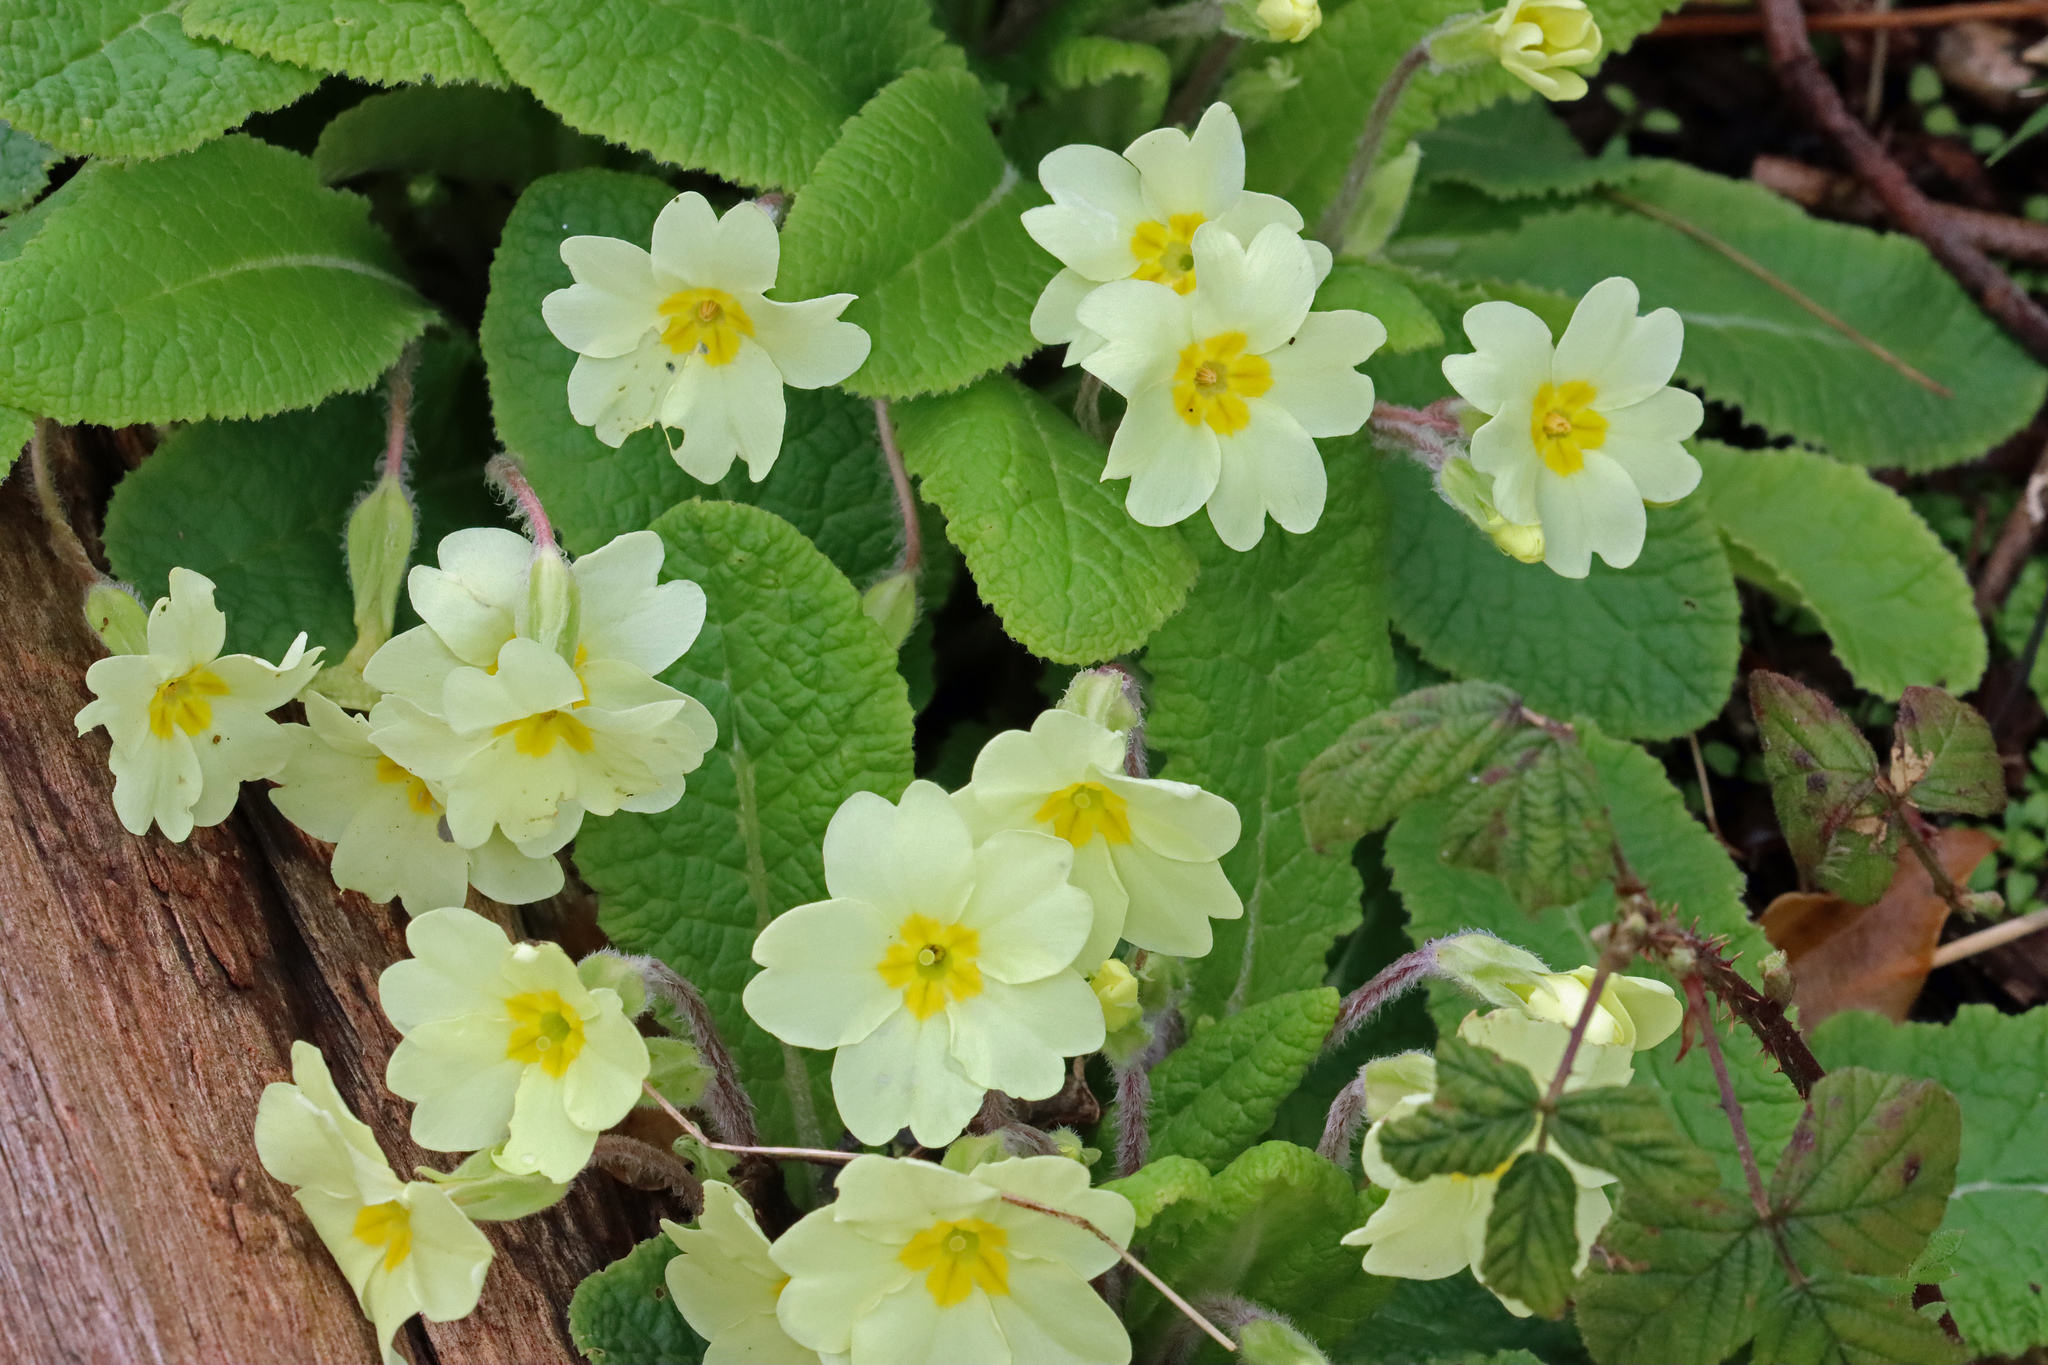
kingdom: Plantae
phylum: Tracheophyta
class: Magnoliopsida
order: Ericales
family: Primulaceae
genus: Primula
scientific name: Primula vulgaris
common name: Primrose
